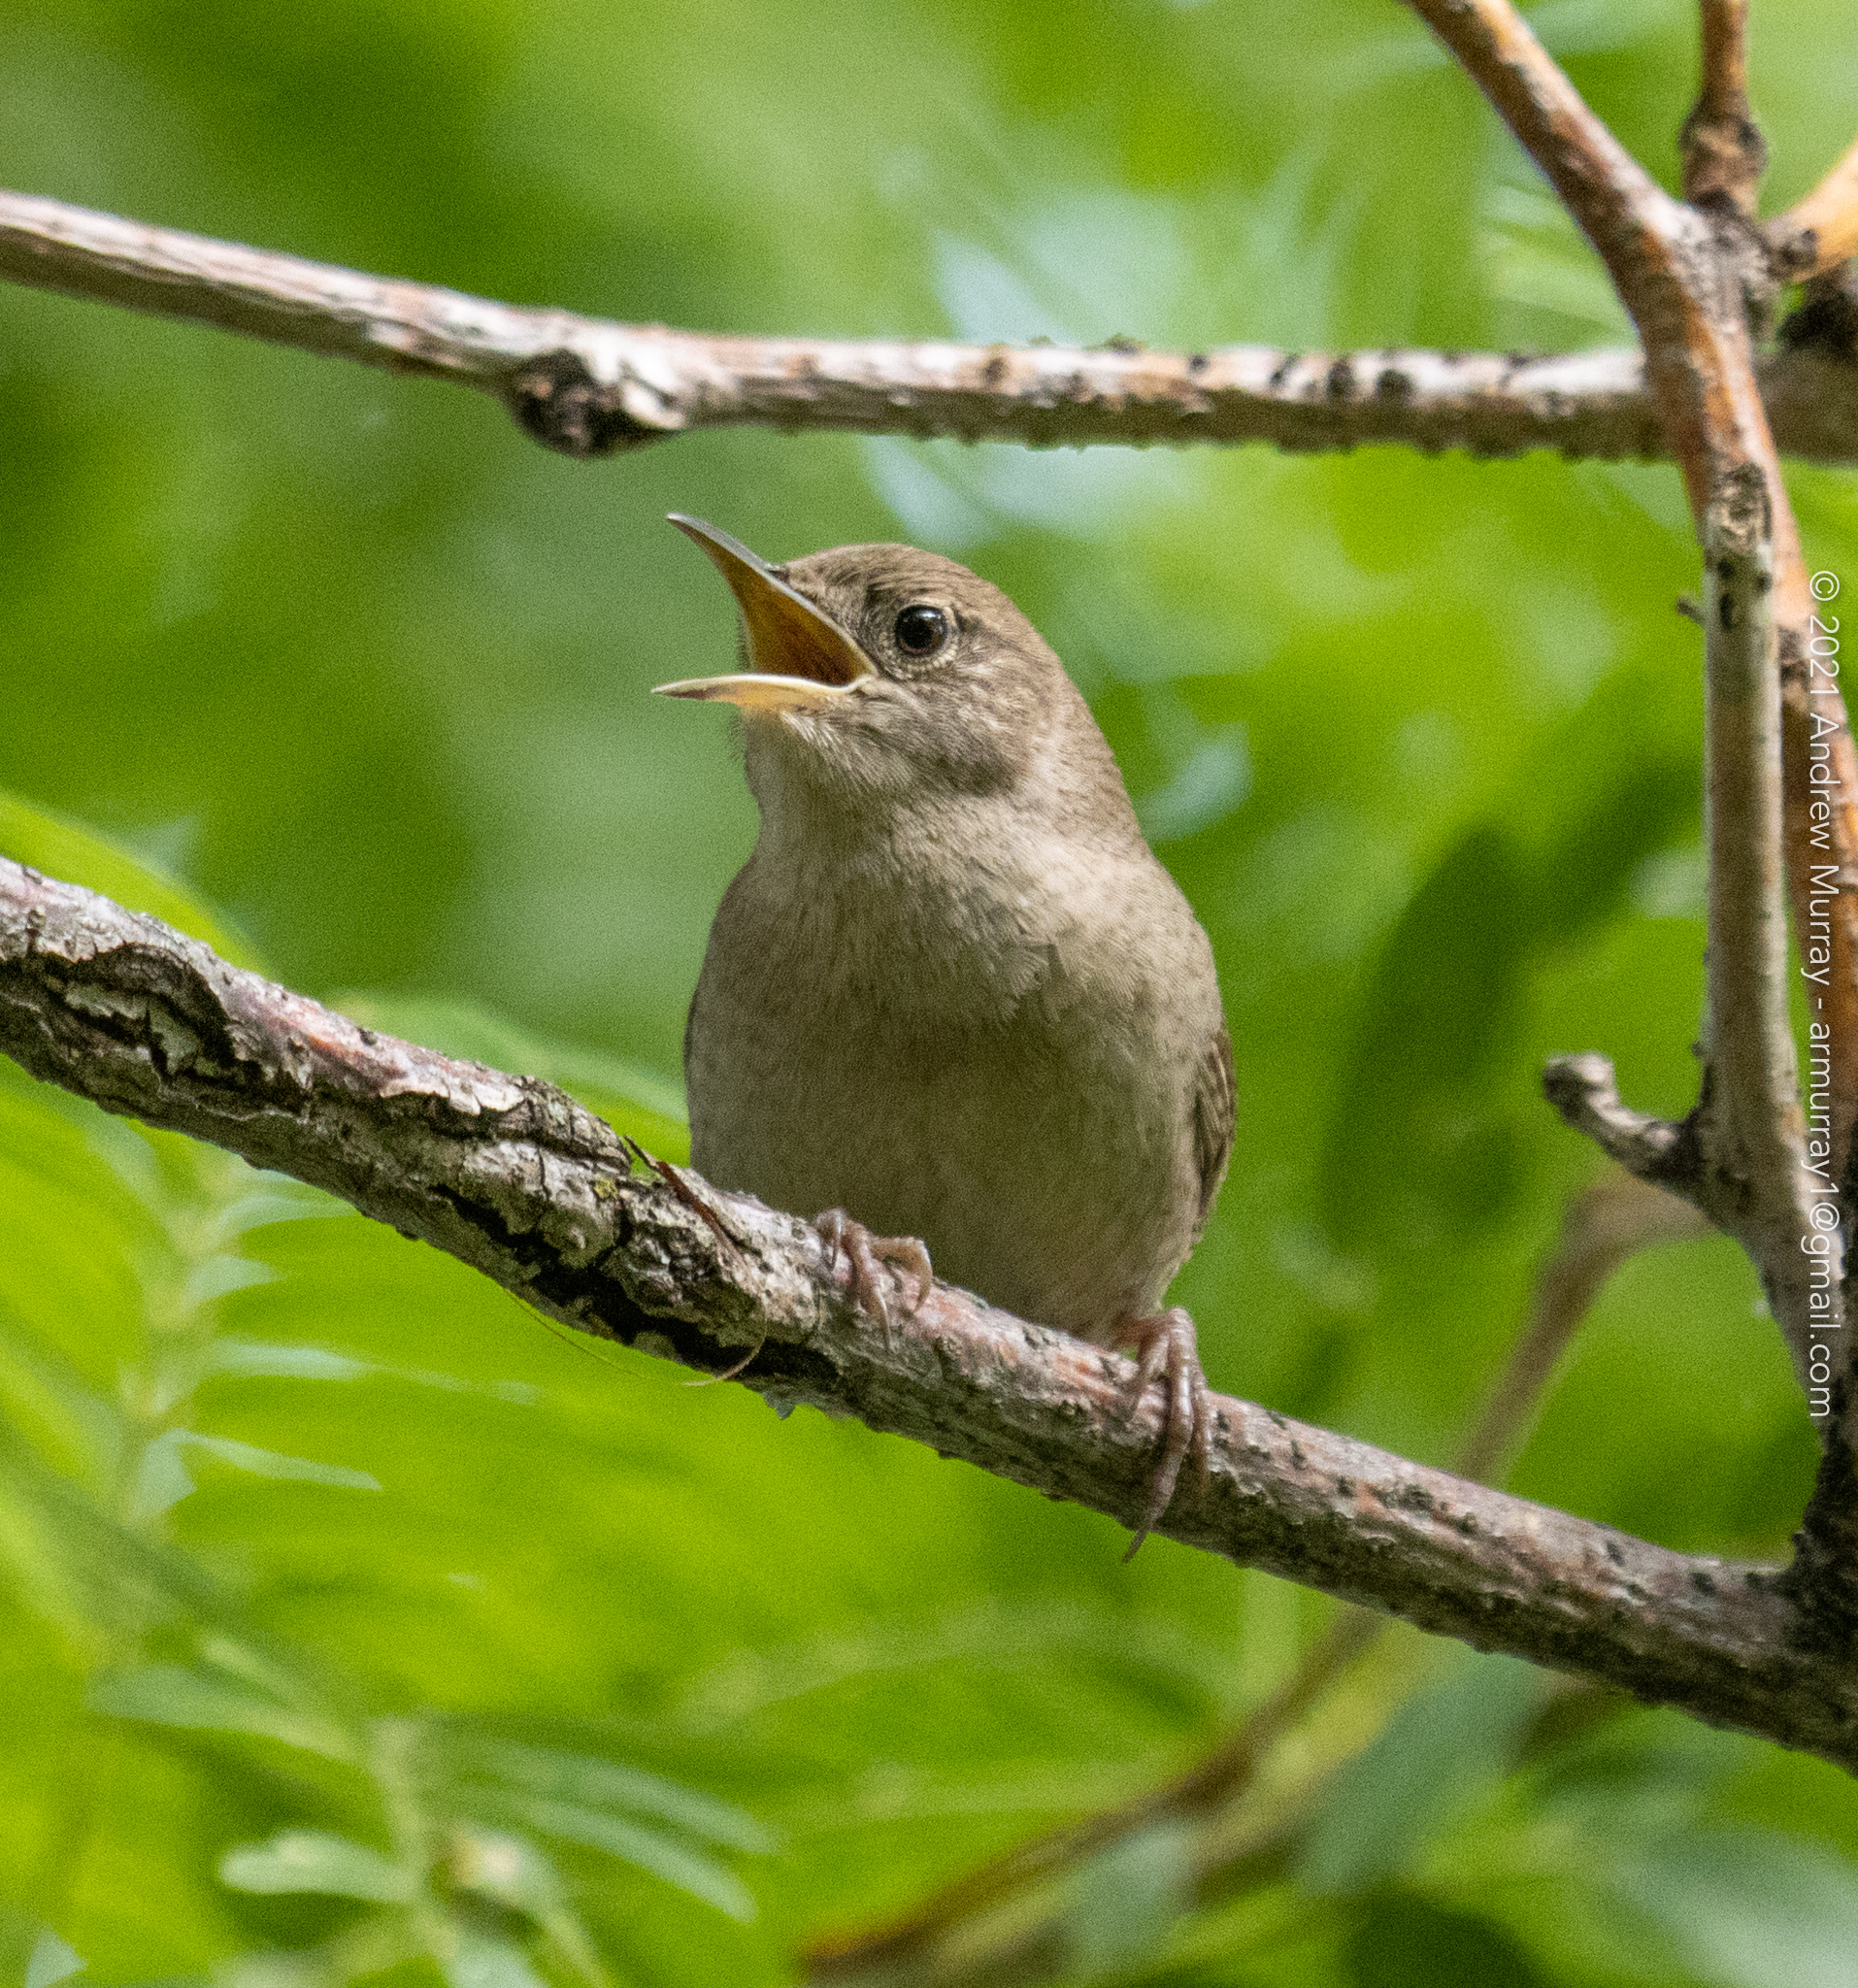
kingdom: Animalia
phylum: Chordata
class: Aves
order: Passeriformes
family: Troglodytidae
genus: Troglodytes
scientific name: Troglodytes aedon
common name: House wren
